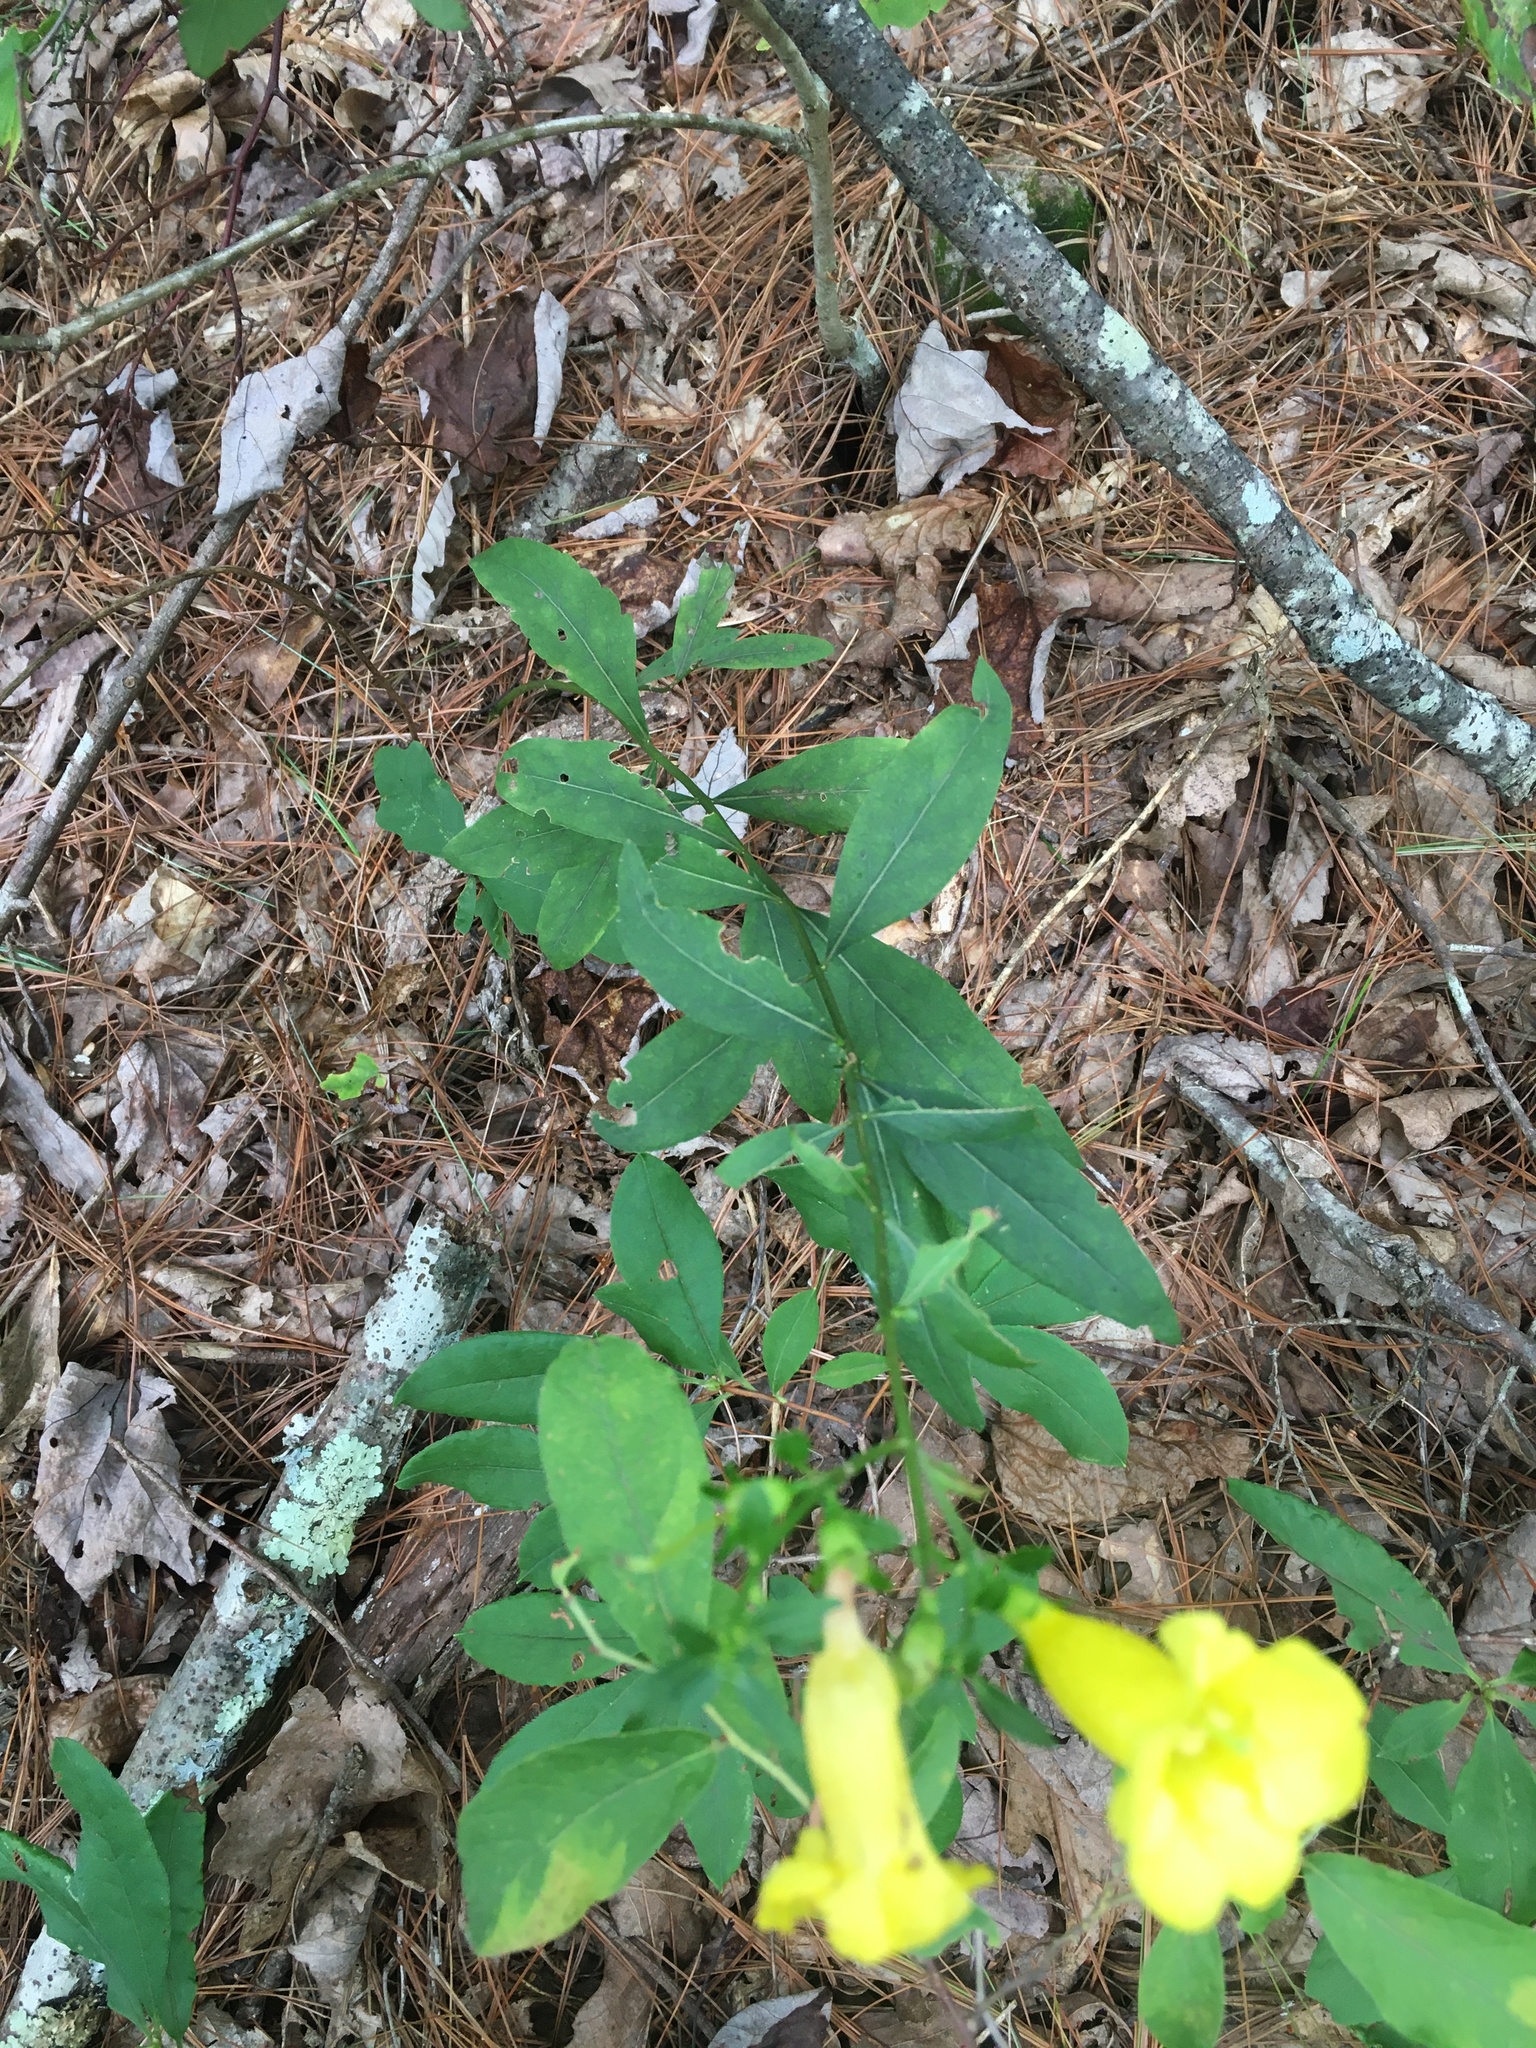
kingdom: Plantae
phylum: Tracheophyta
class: Magnoliopsida
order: Lamiales
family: Orobanchaceae
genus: Aureolaria
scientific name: Aureolaria levigata
